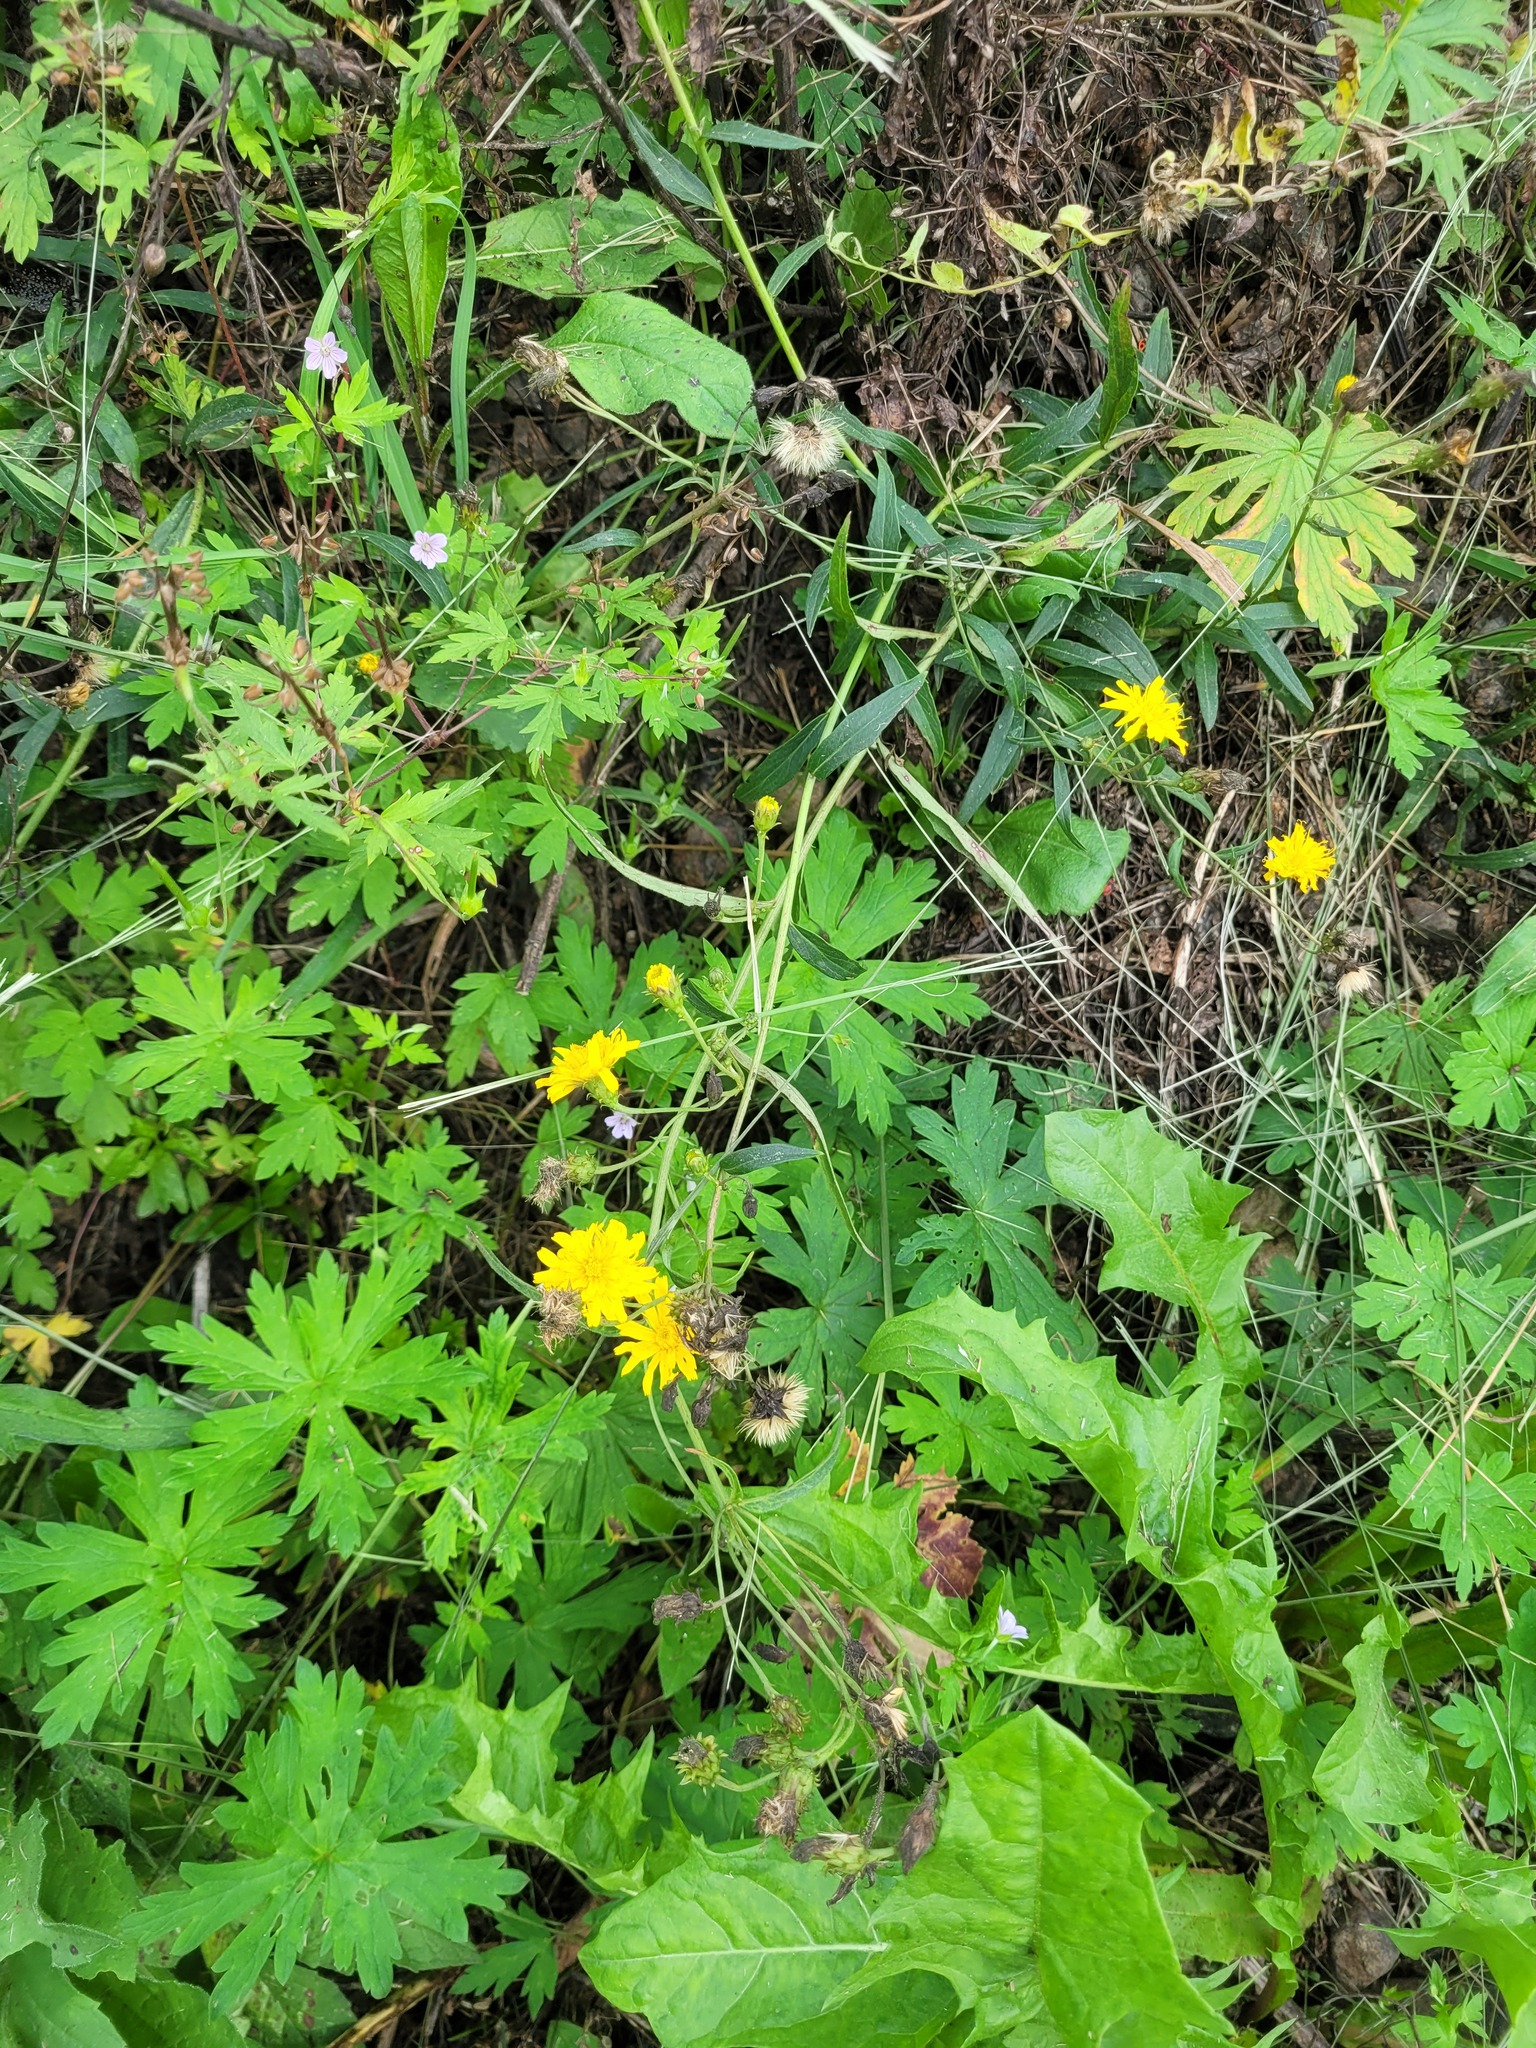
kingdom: Plantae
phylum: Tracheophyta
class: Magnoliopsida
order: Asterales
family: Asteraceae
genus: Hieracium
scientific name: Hieracium umbellatum
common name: Northern hawkweed
